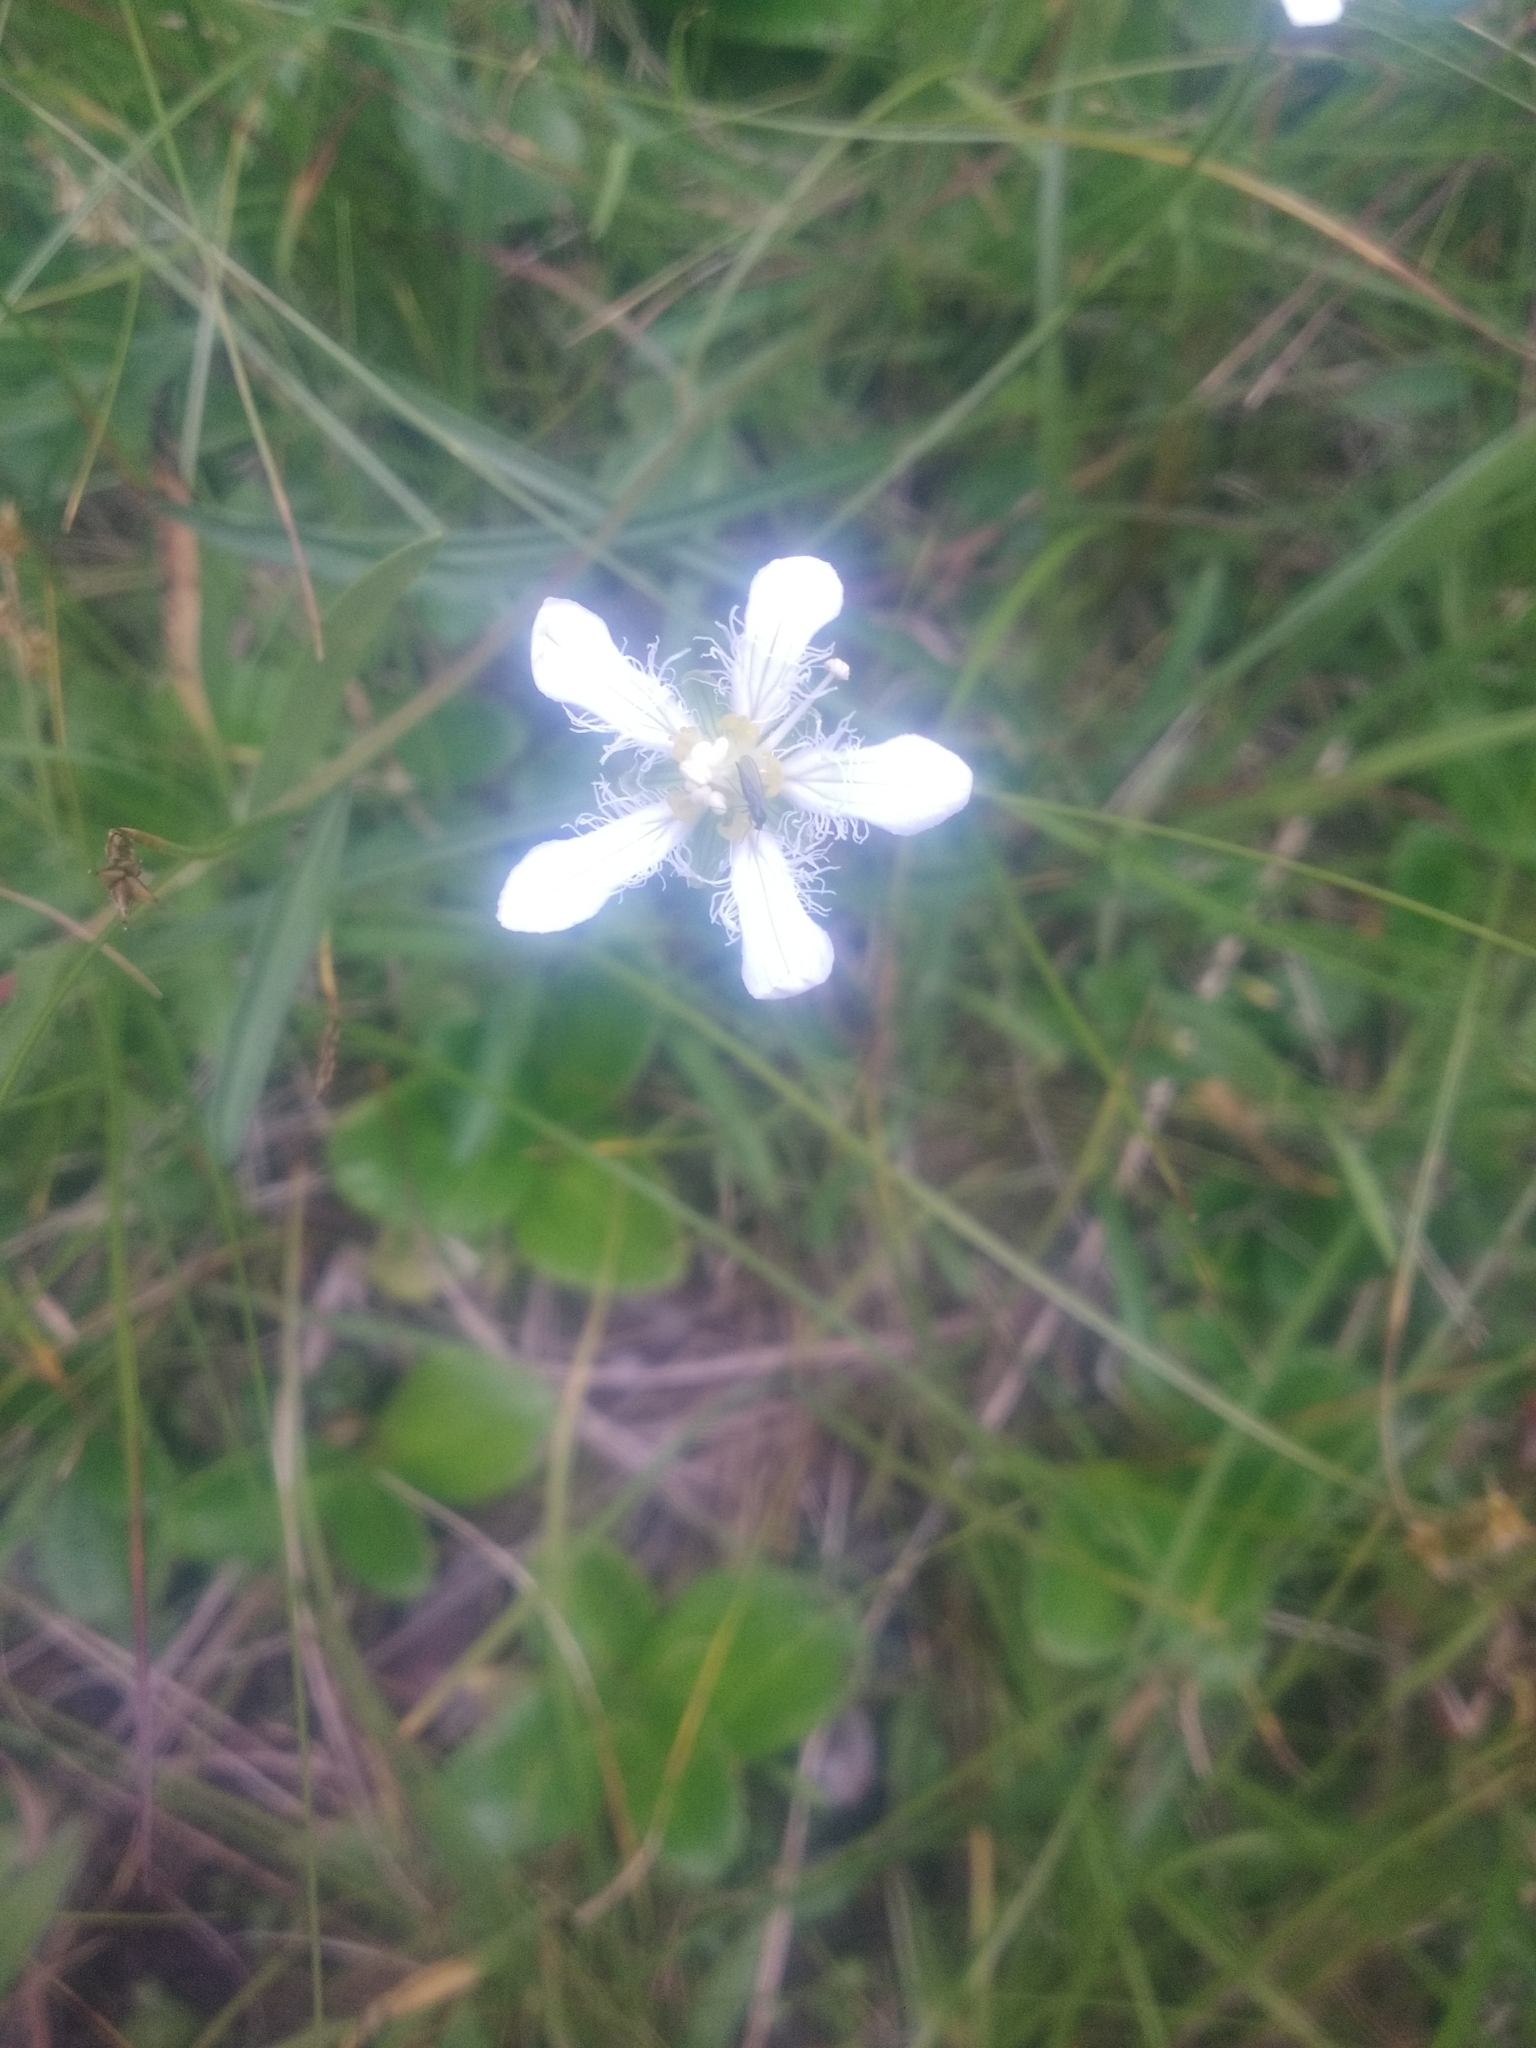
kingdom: Plantae
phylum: Tracheophyta
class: Magnoliopsida
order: Celastrales
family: Parnassiaceae
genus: Parnassia
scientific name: Parnassia fimbriata
